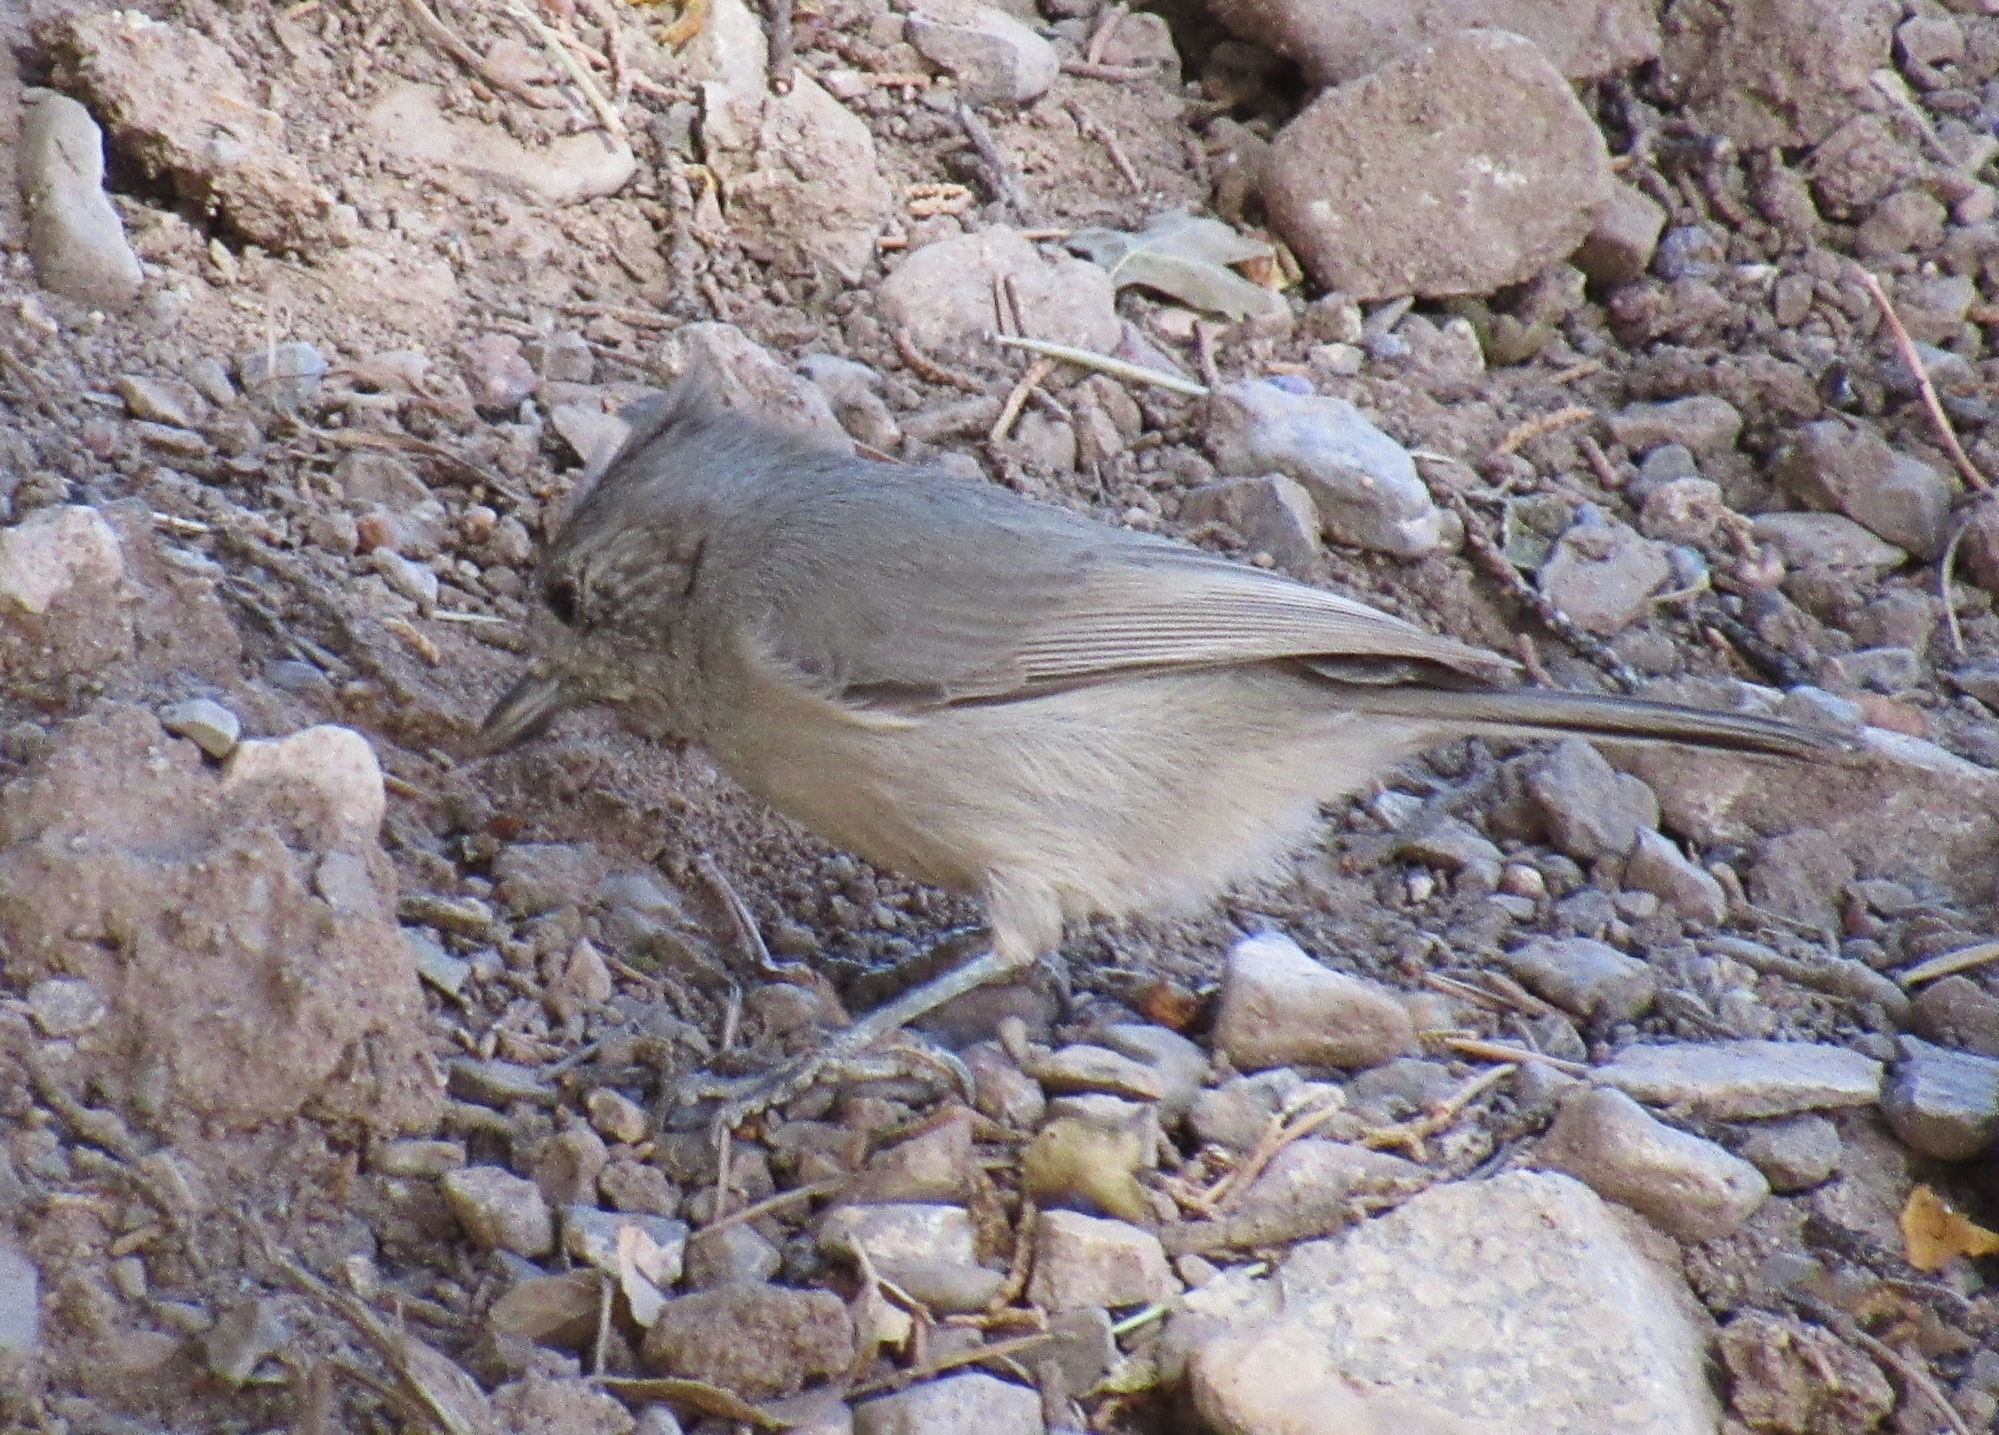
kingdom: Animalia
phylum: Chordata
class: Aves
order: Passeriformes
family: Paridae
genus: Baeolophus
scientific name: Baeolophus ridgwayi
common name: Juniper titmouse
